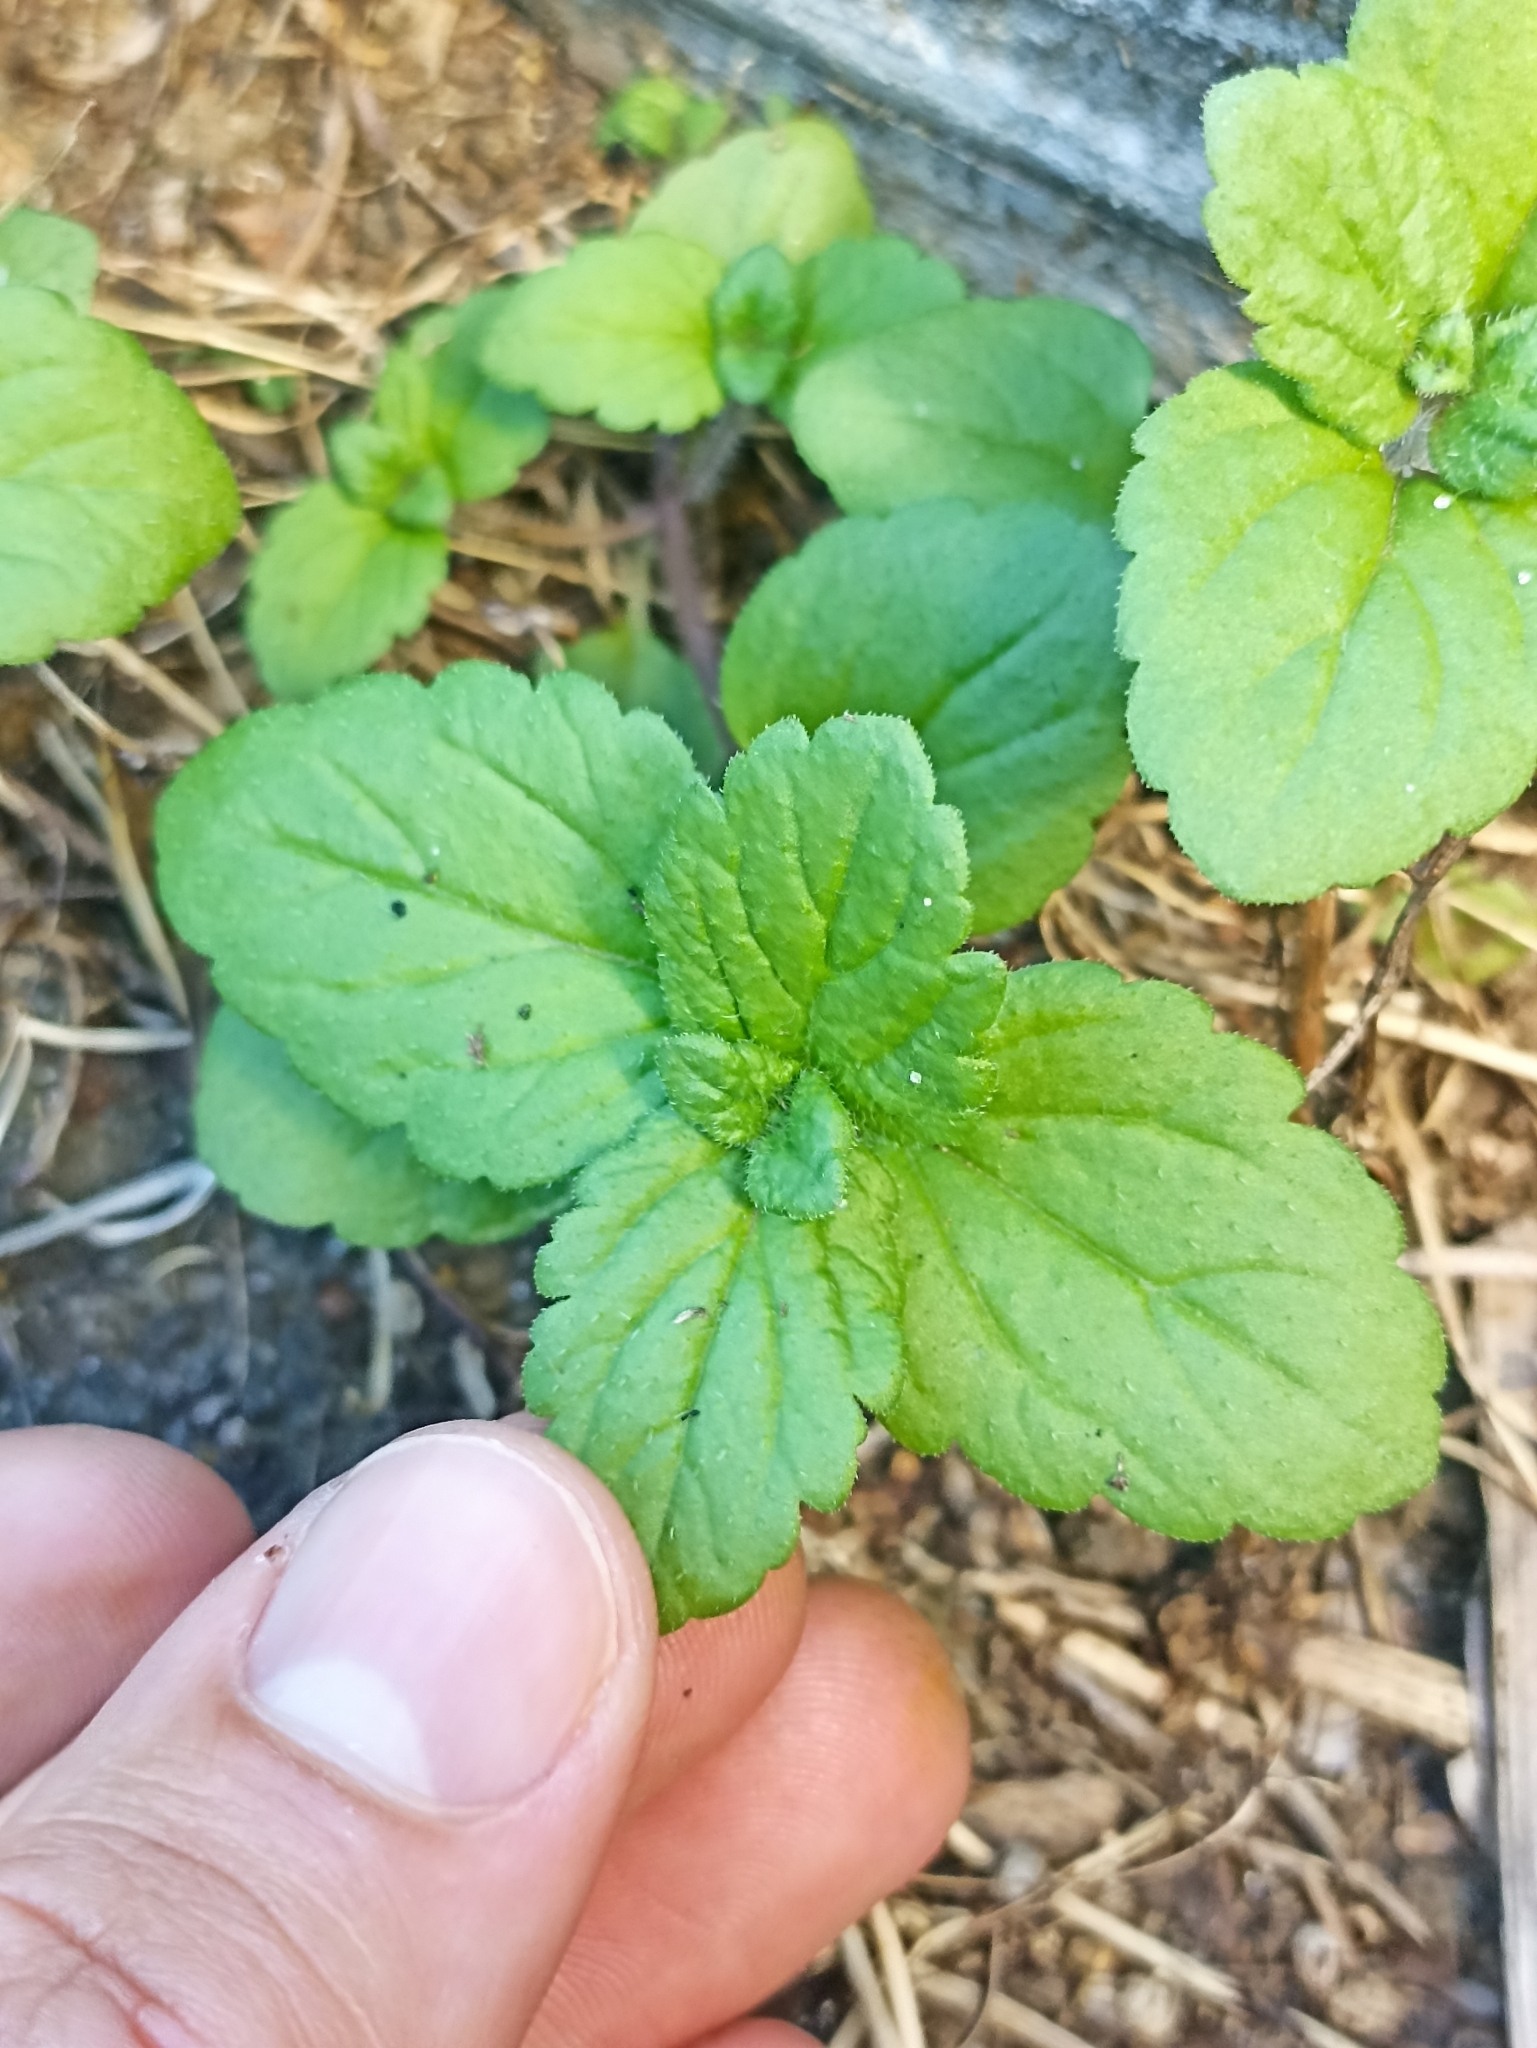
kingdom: Plantae
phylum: Tracheophyta
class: Magnoliopsida
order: Lamiales
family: Plantaginaceae
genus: Veronica
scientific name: Veronica persica
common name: Common field-speedwell
